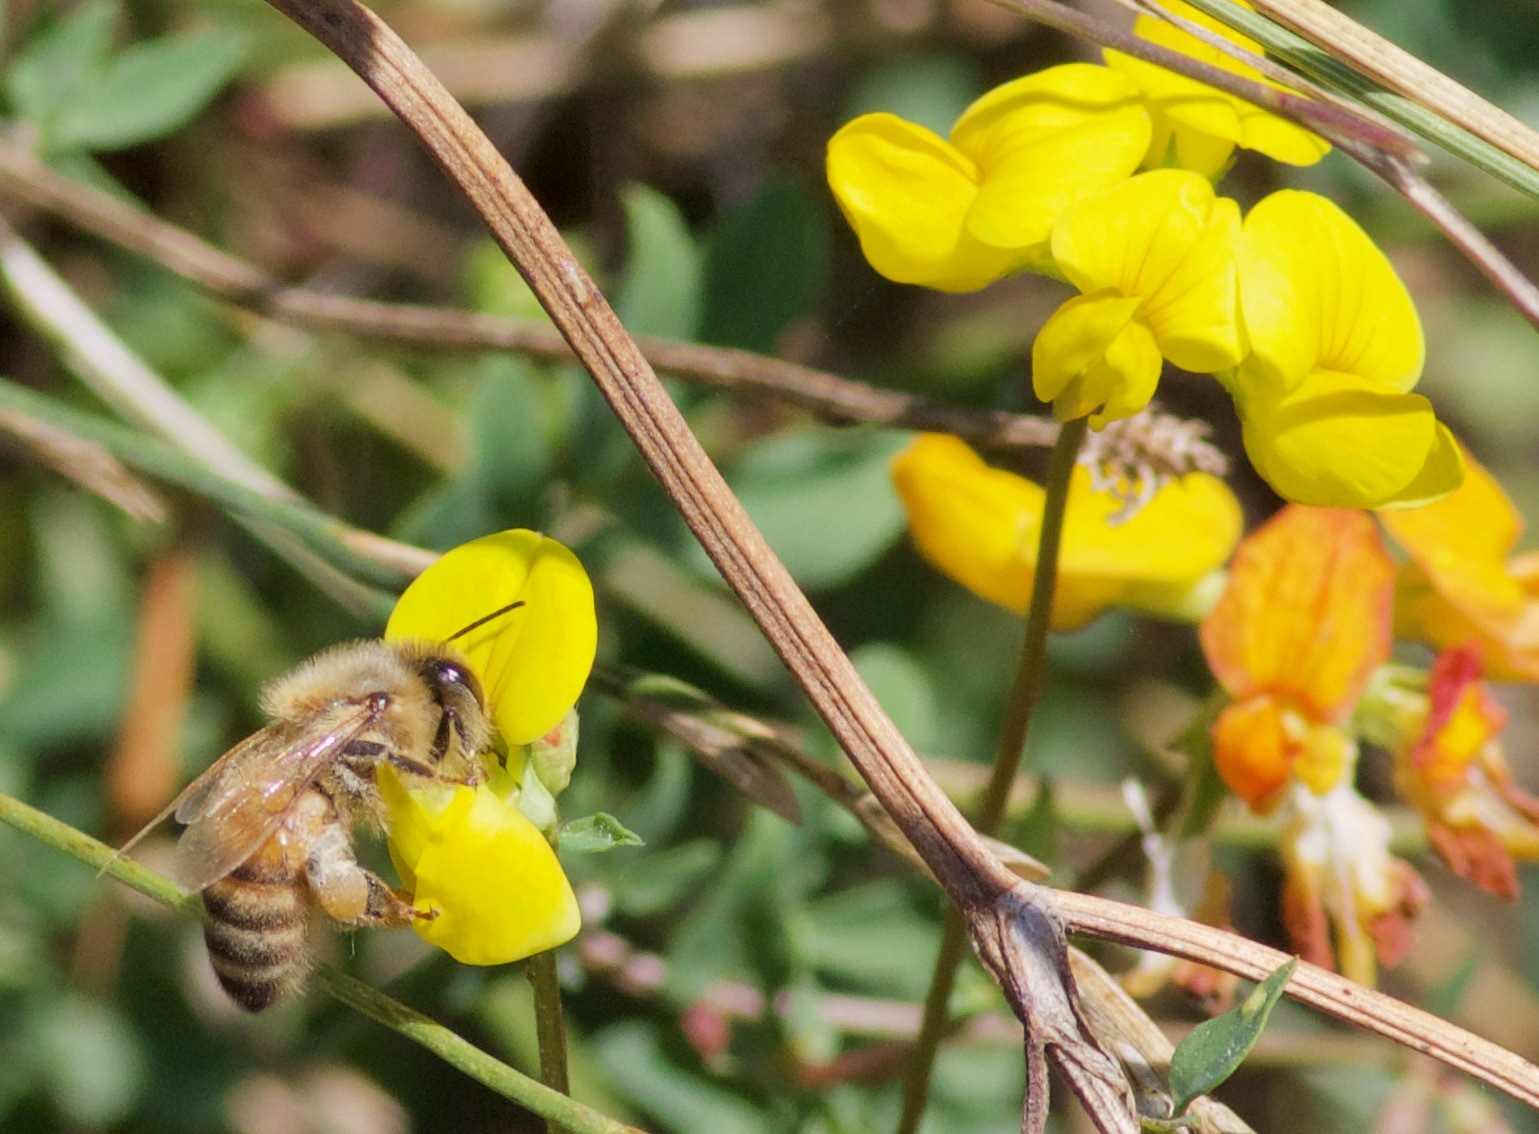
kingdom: Animalia
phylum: Arthropoda
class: Insecta
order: Hymenoptera
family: Apidae
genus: Apis
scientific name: Apis mellifera
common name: Honey bee
